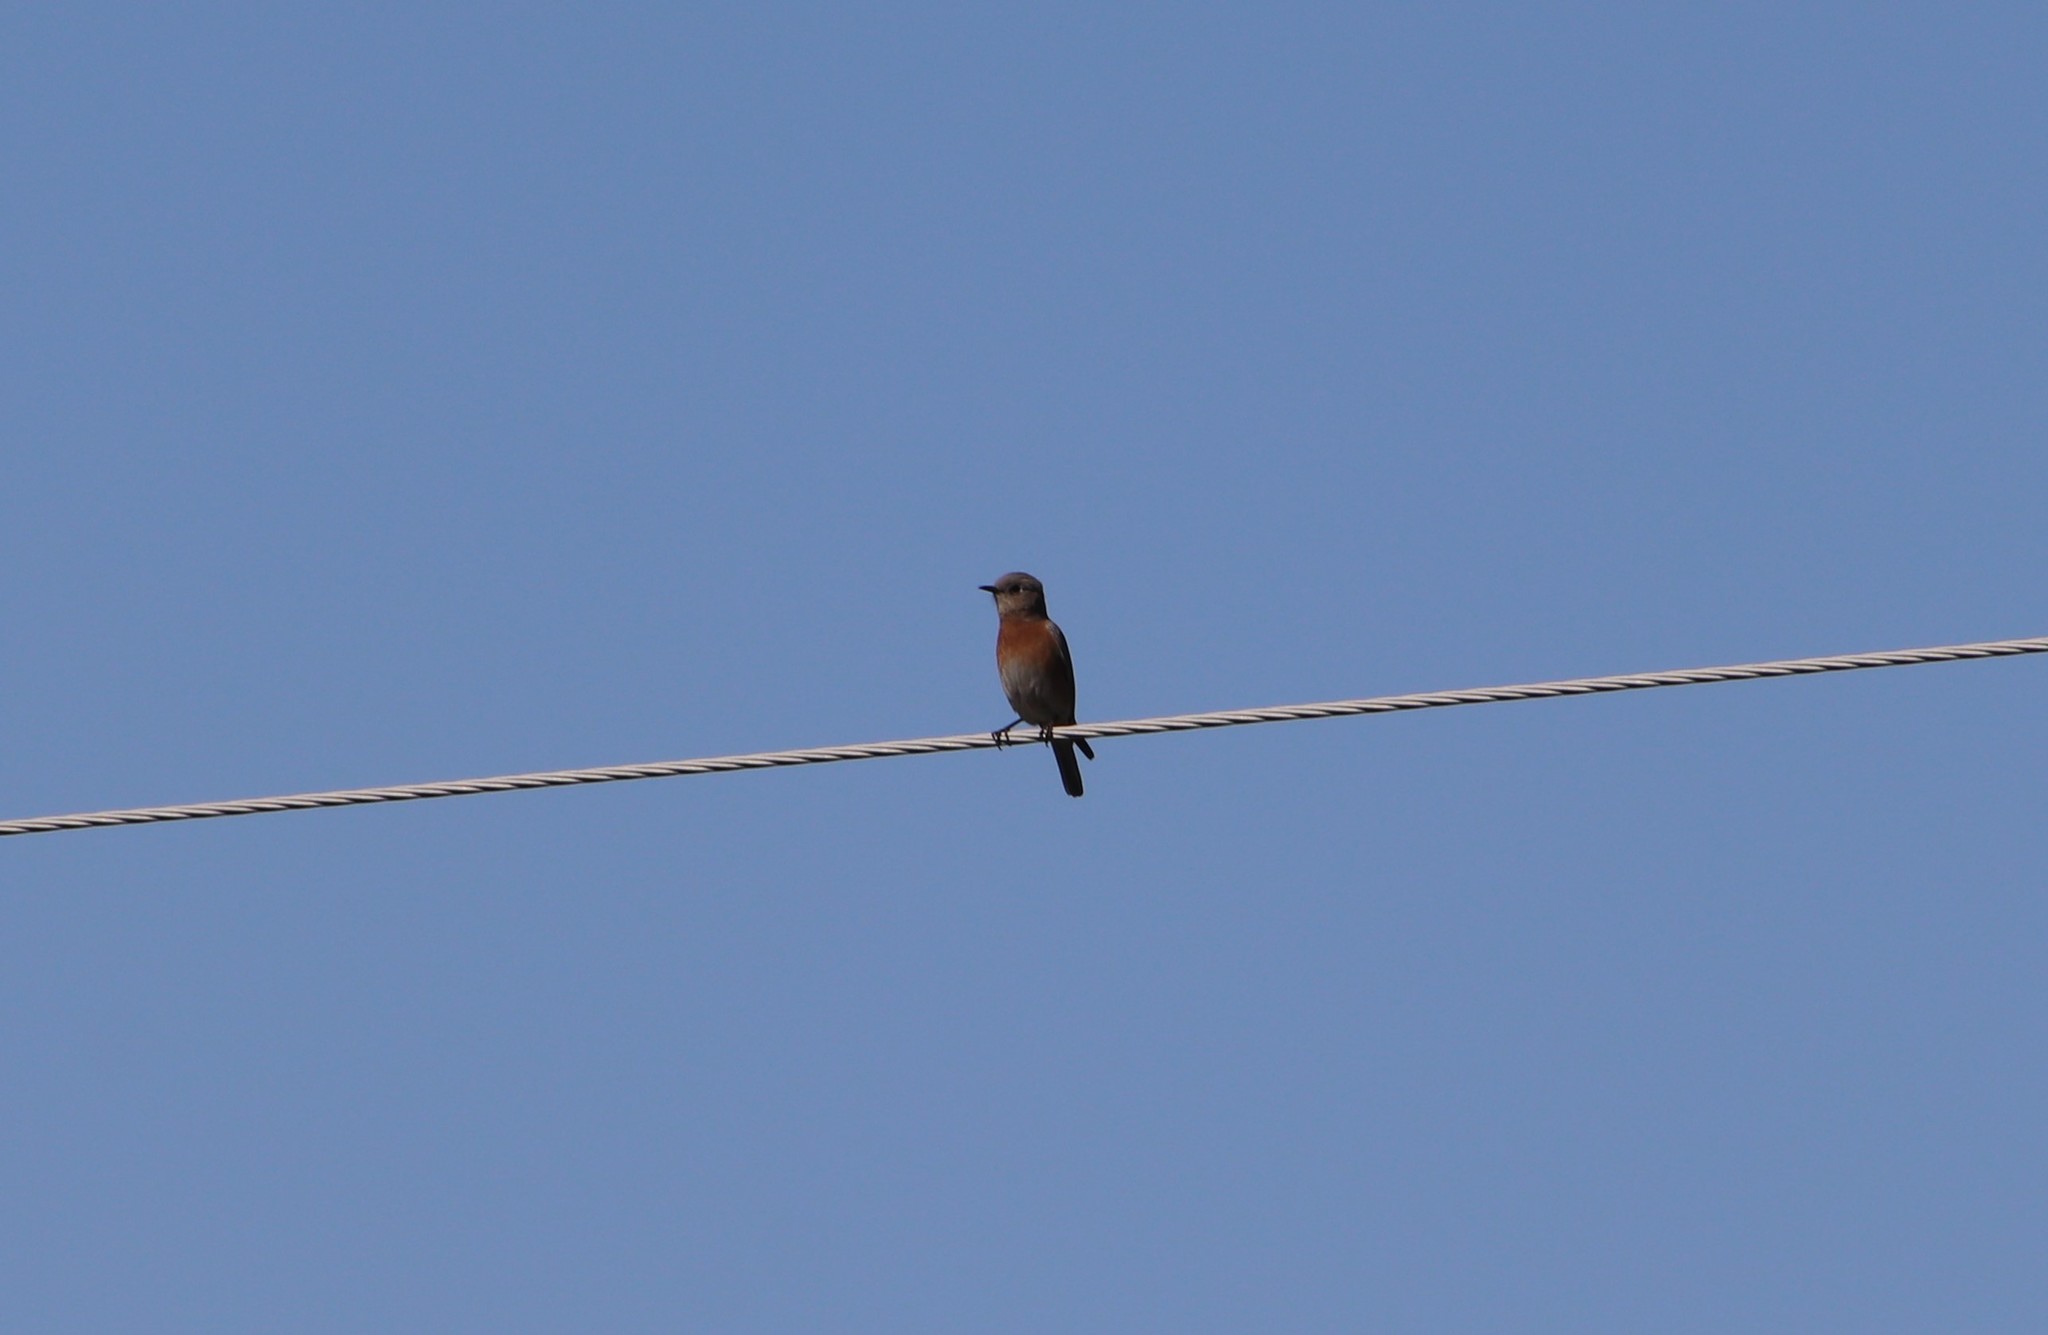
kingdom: Animalia
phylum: Chordata
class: Aves
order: Passeriformes
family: Turdidae
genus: Sialia
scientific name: Sialia mexicana
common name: Western bluebird
